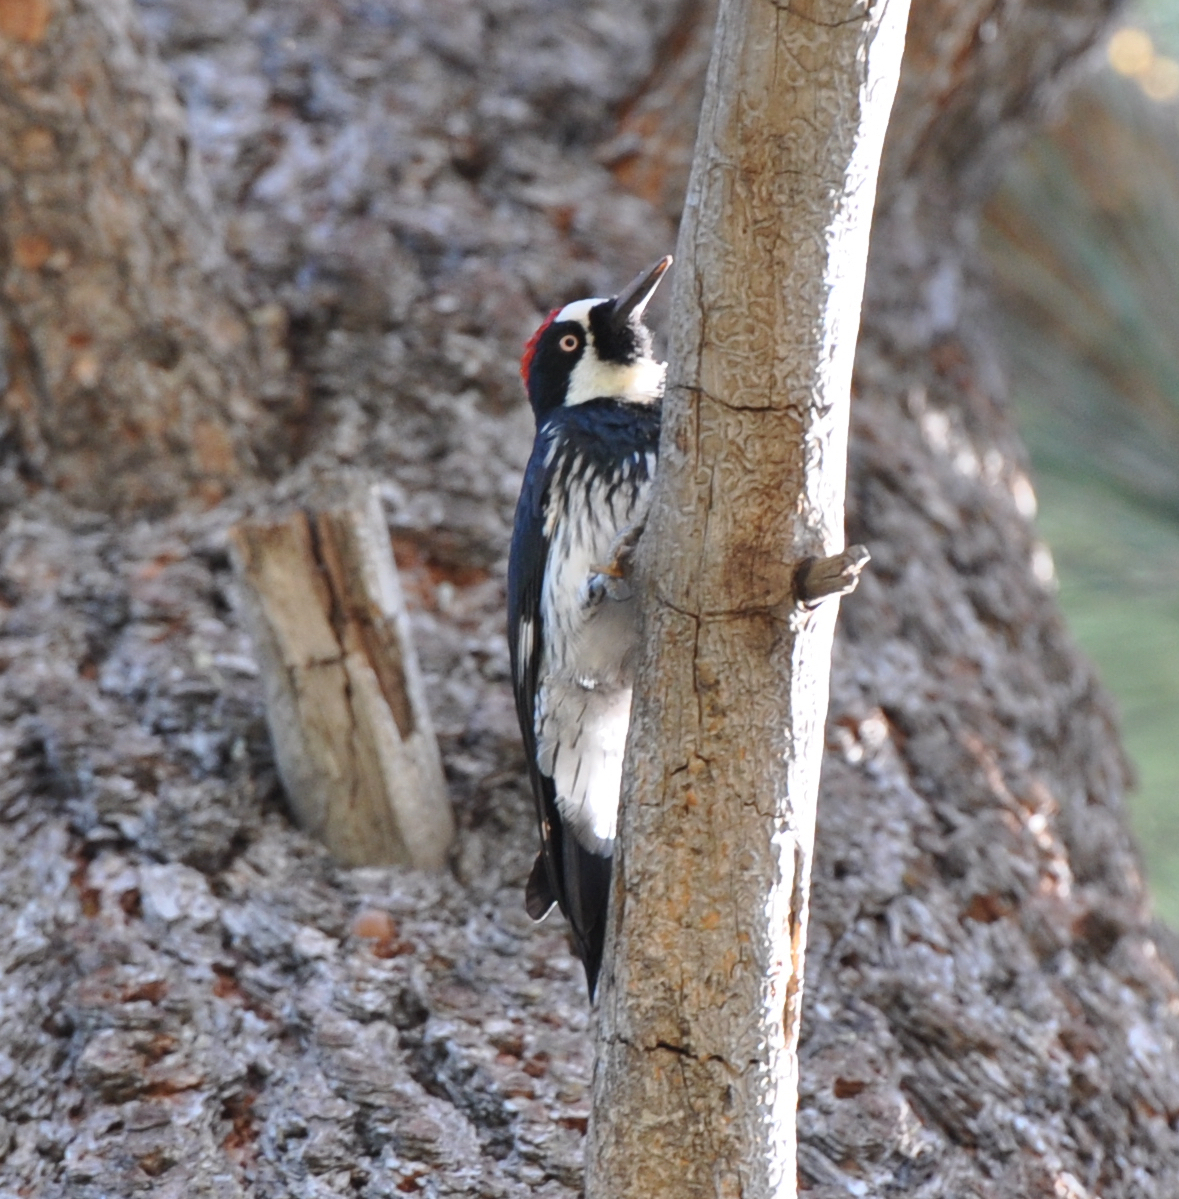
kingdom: Animalia
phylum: Chordata
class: Aves
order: Piciformes
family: Picidae
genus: Melanerpes
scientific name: Melanerpes formicivorus
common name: Acorn woodpecker
